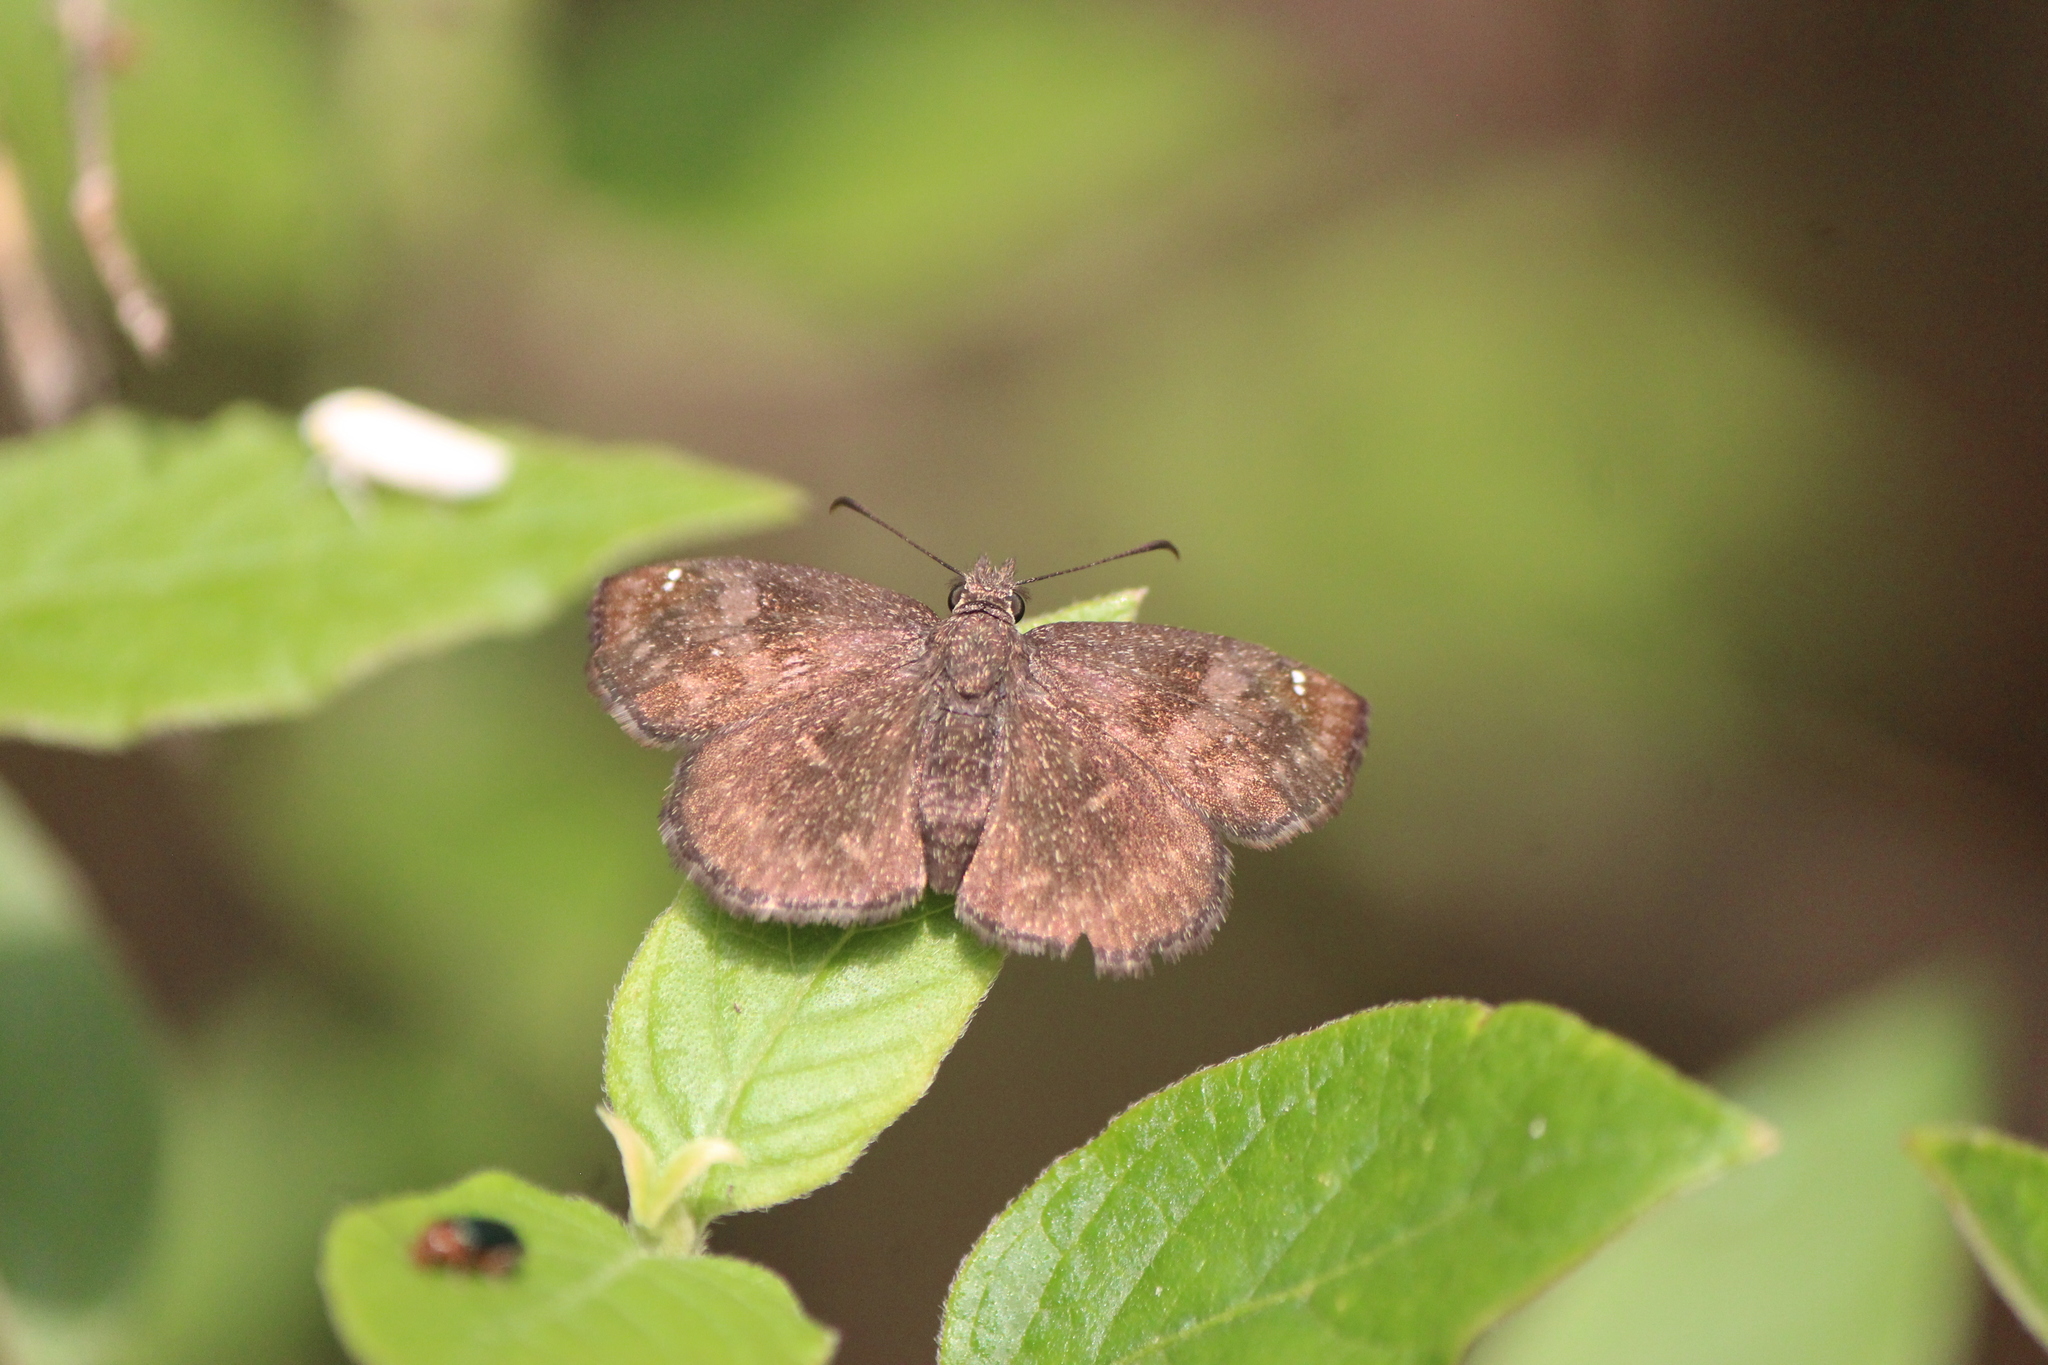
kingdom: Animalia
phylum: Arthropoda
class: Insecta
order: Lepidoptera
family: Hesperiidae
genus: Staphylus
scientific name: Staphylus vincula
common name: Mountain sootywing
